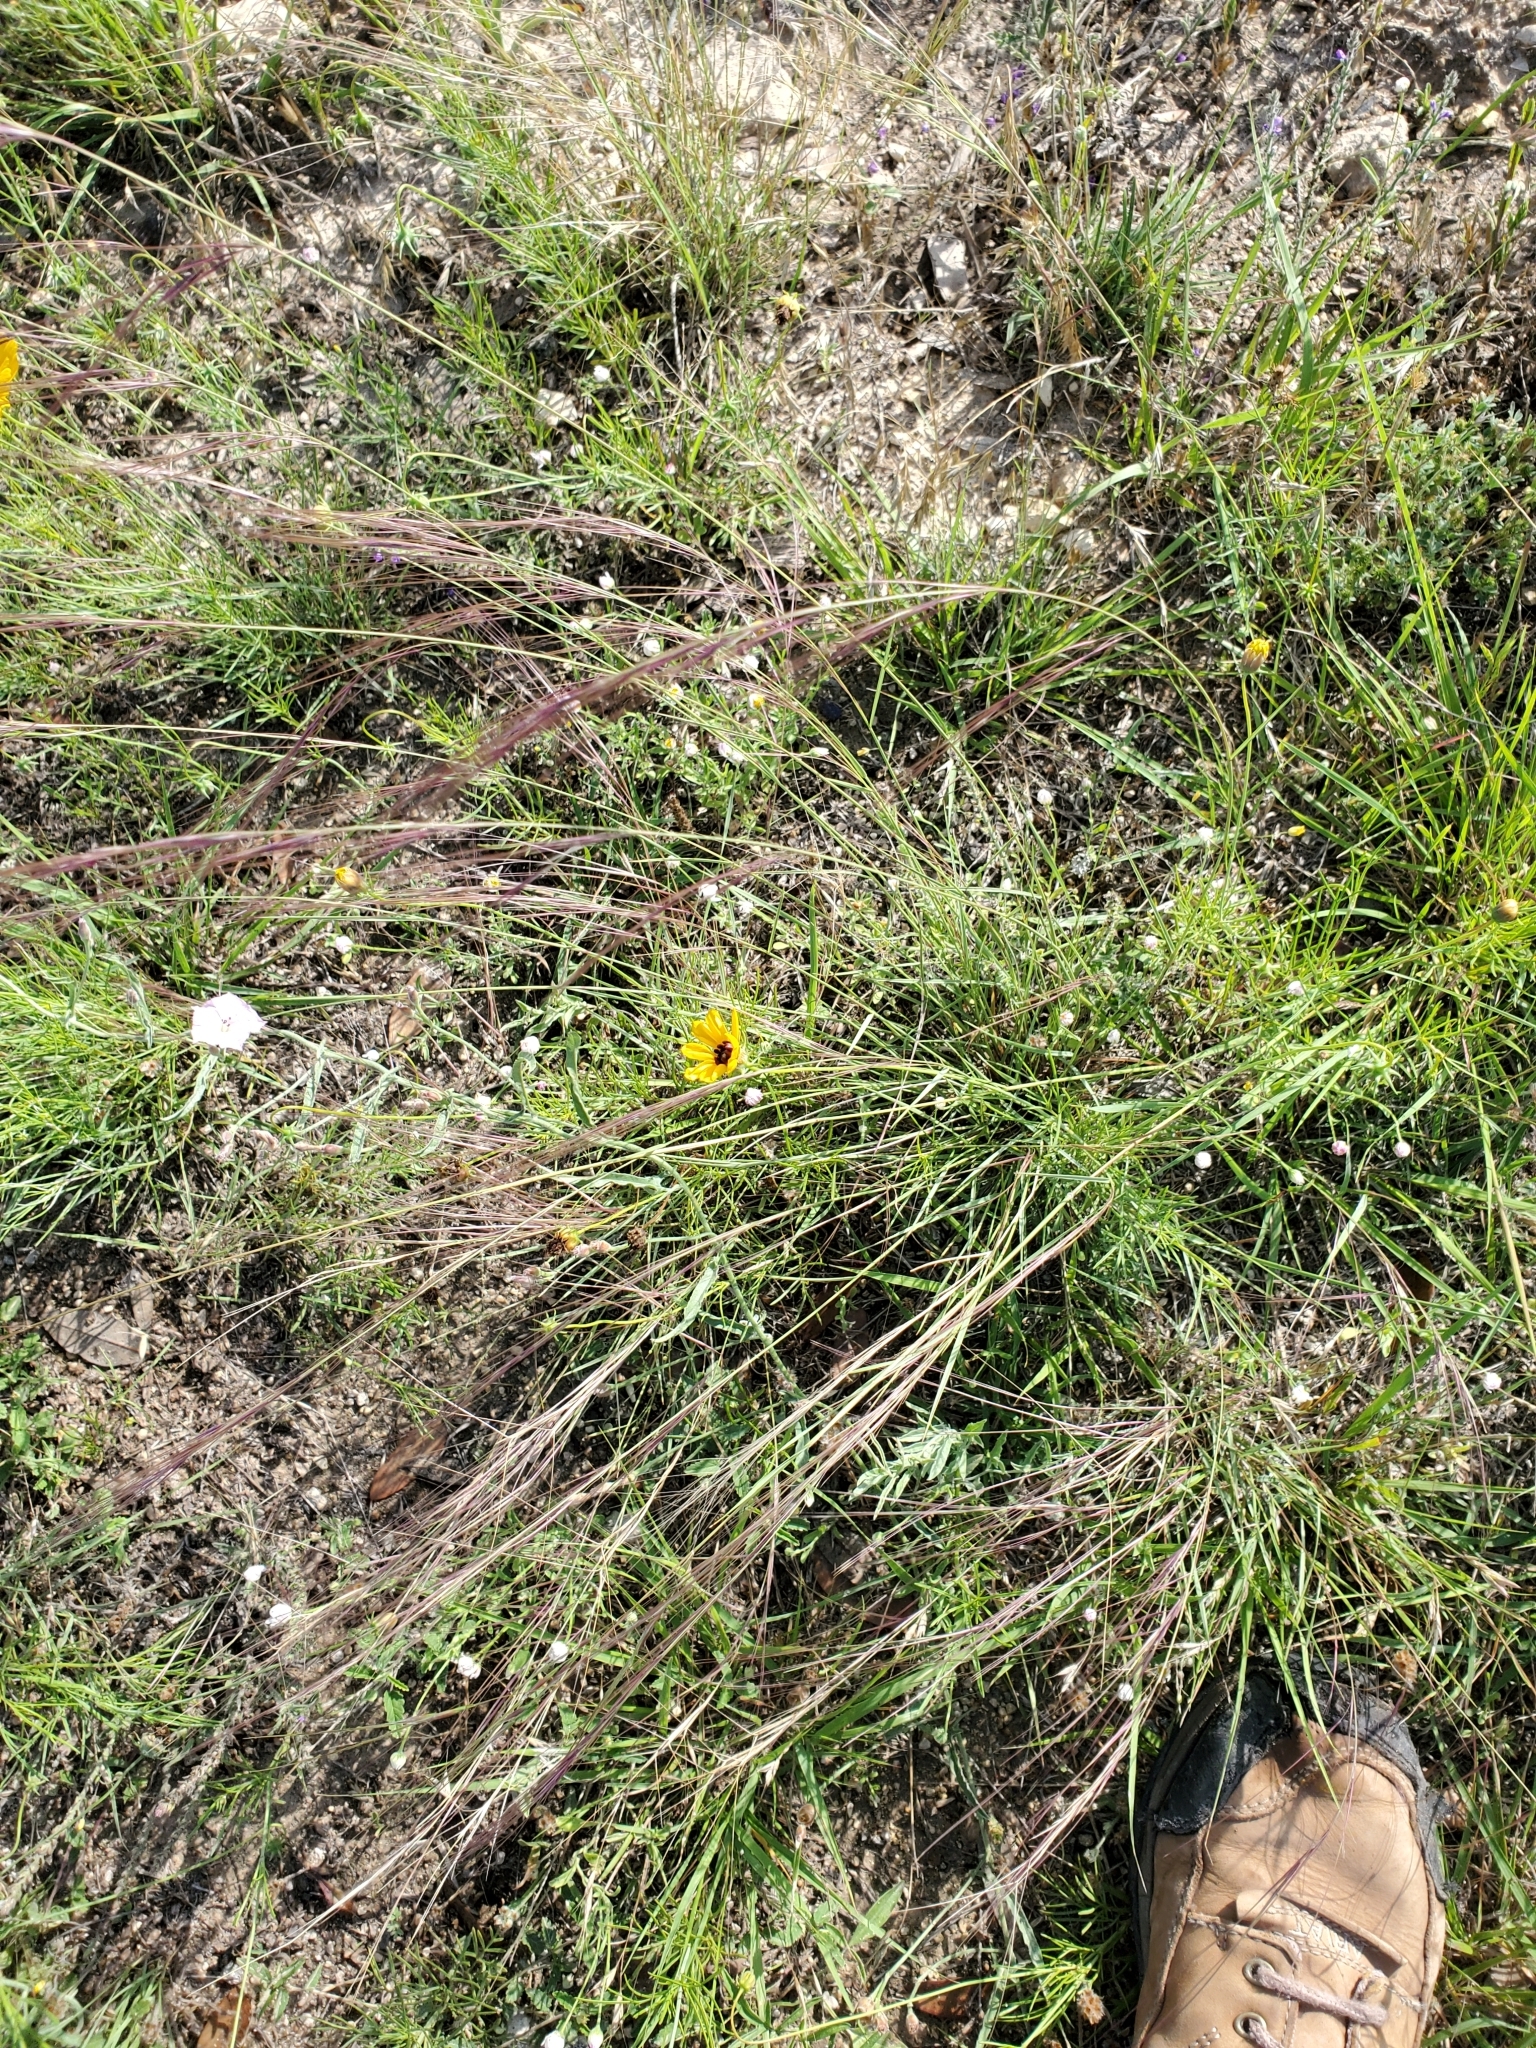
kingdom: Plantae
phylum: Tracheophyta
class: Liliopsida
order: Poales
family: Poaceae
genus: Nassella
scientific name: Nassella leucotricha
